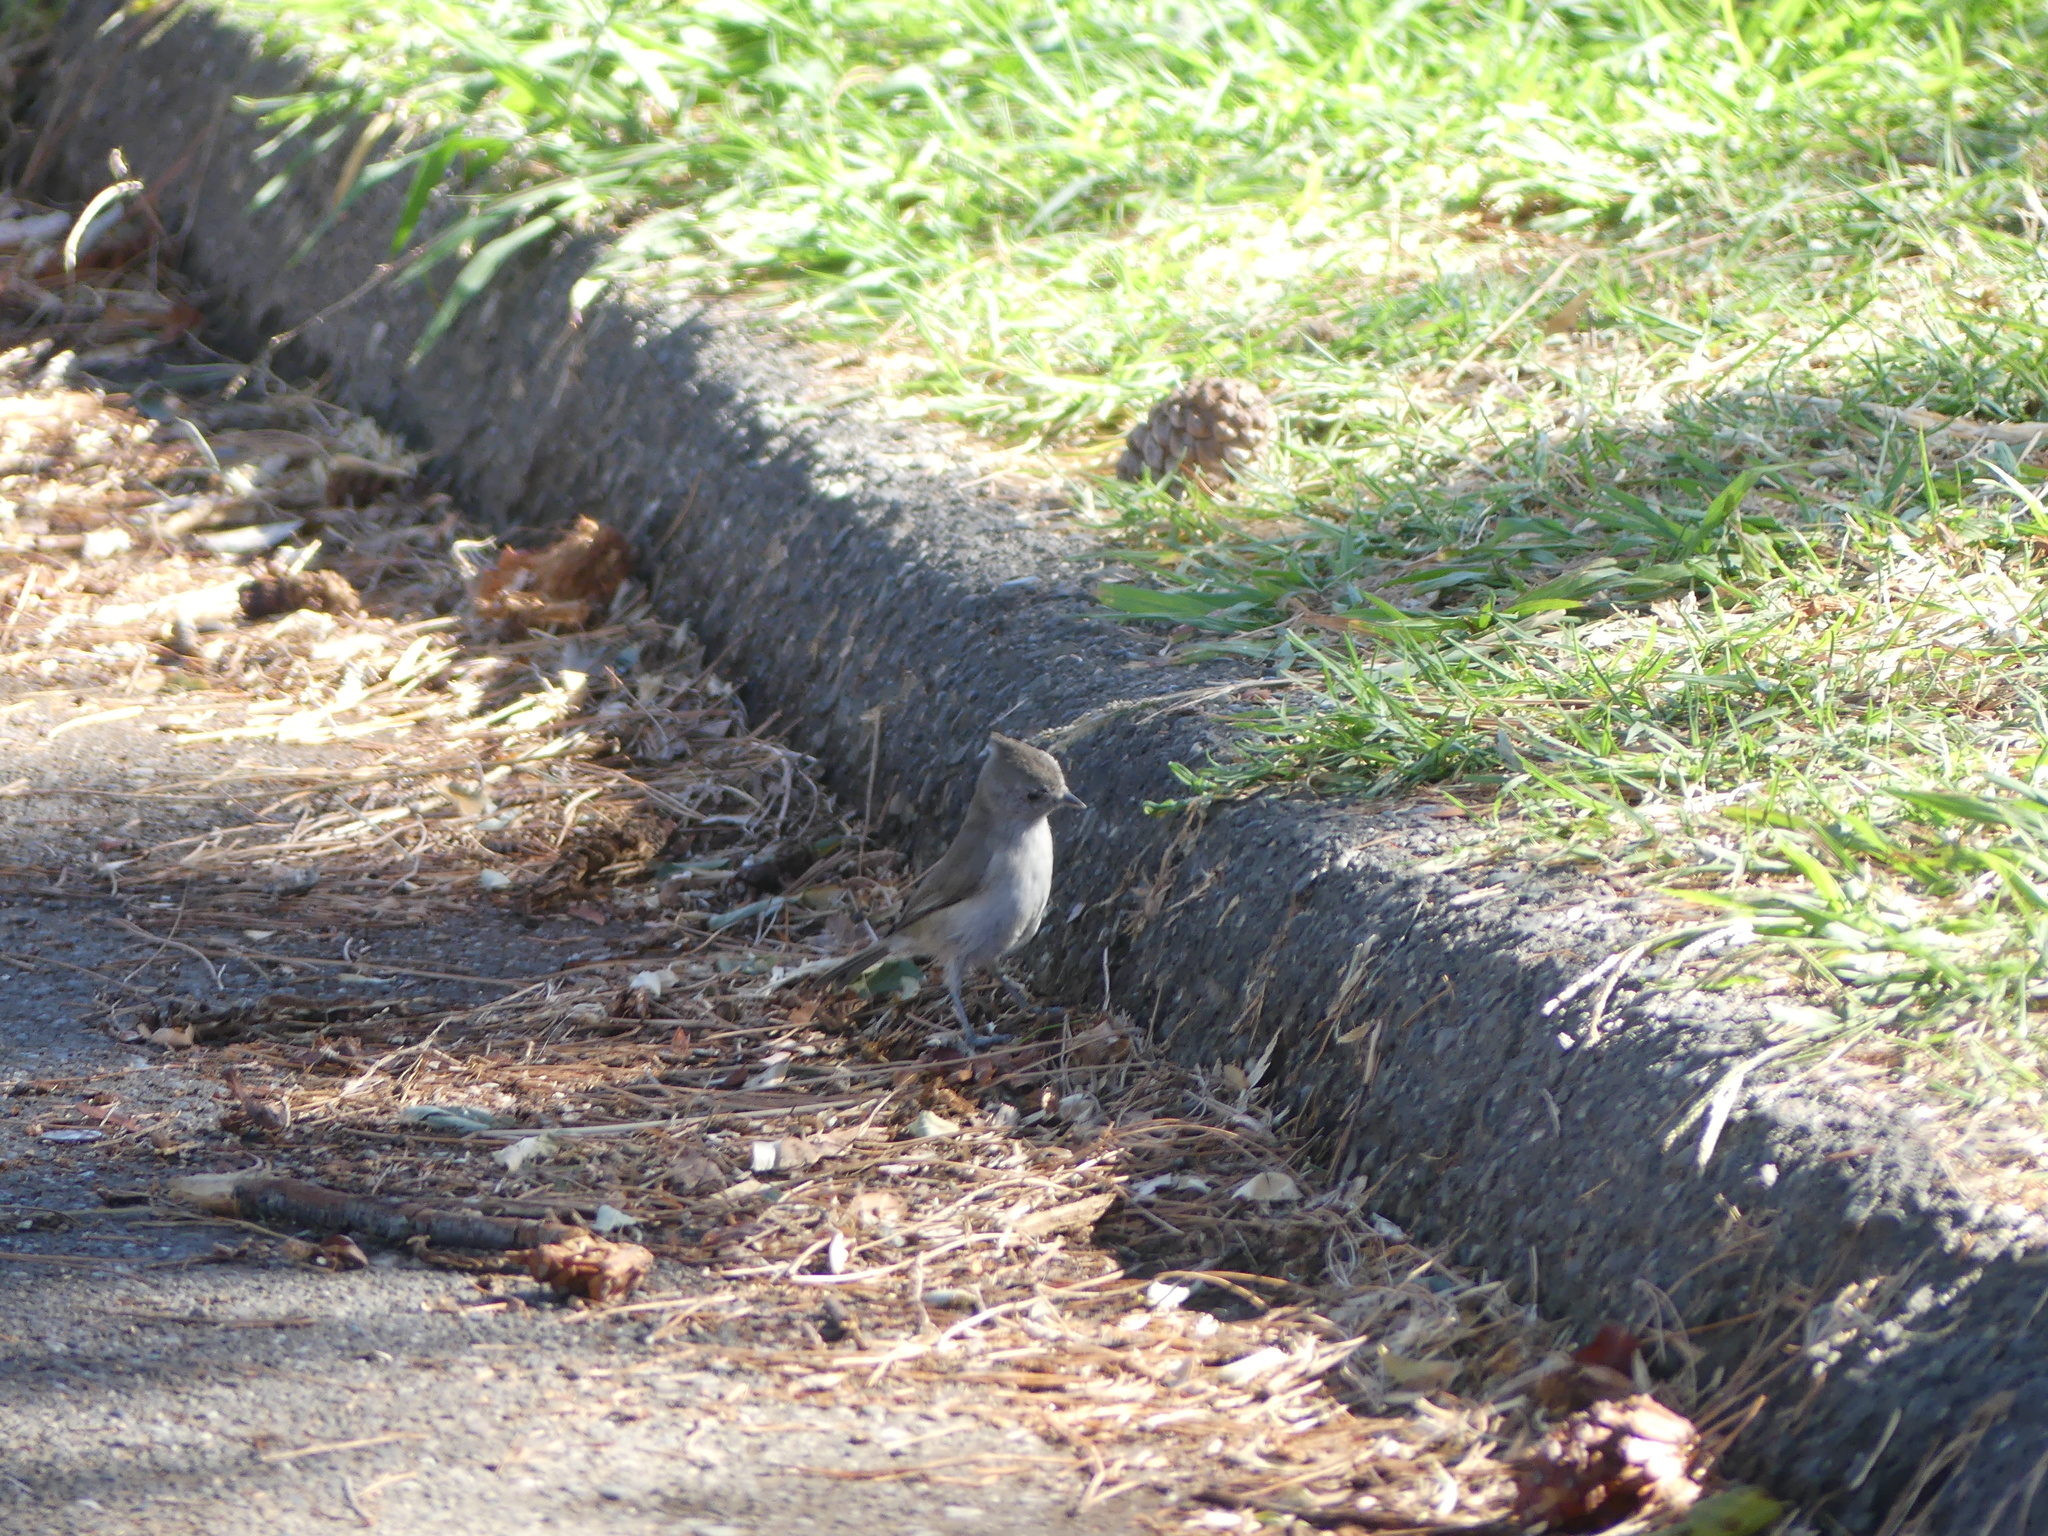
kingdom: Animalia
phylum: Chordata
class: Aves
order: Passeriformes
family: Paridae
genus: Baeolophus
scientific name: Baeolophus inornatus
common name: Oak titmouse
